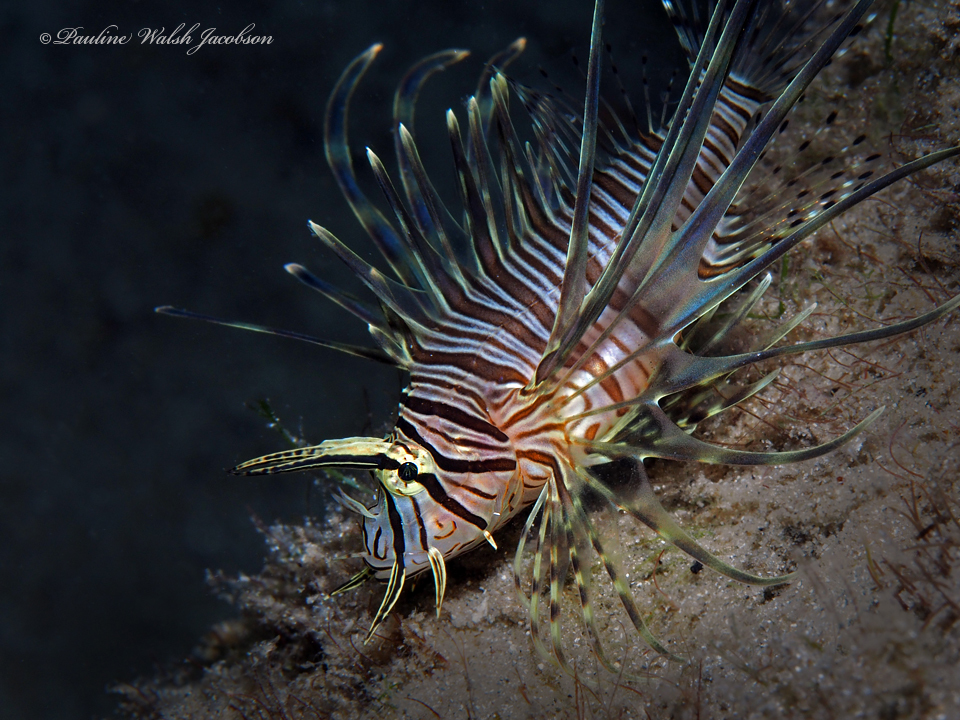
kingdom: Animalia
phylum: Chordata
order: Scorpaeniformes
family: Scorpaenidae
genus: Pterois
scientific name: Pterois volitans
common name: Lionfish
